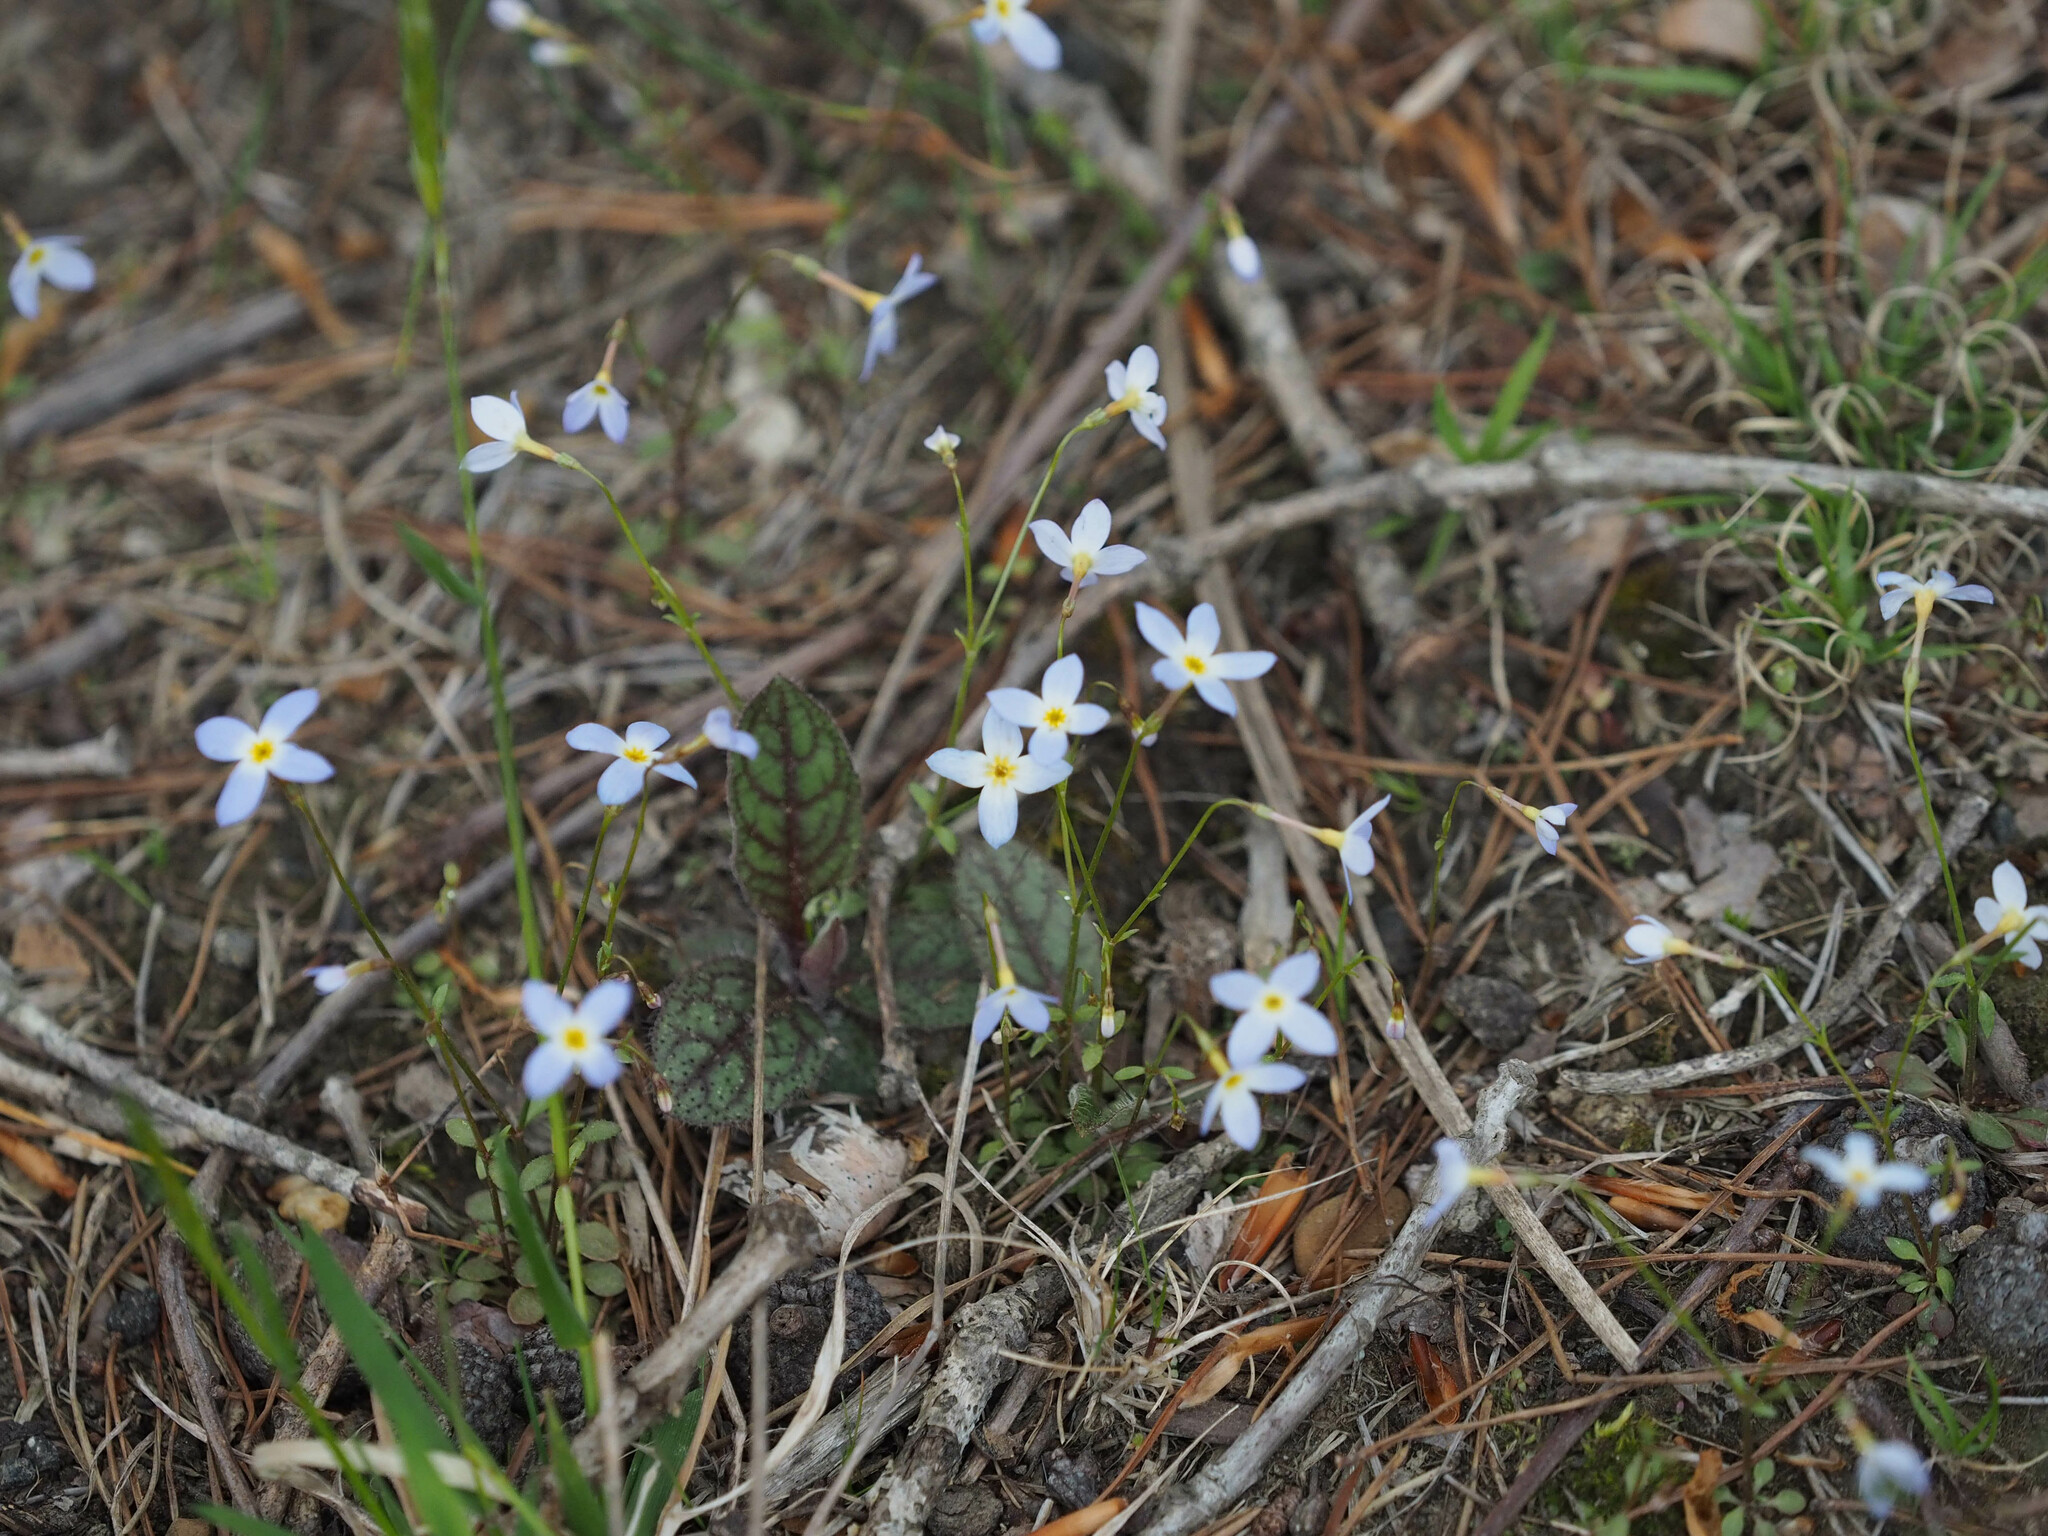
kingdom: Plantae
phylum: Tracheophyta
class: Magnoliopsida
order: Gentianales
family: Rubiaceae
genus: Houstonia
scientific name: Houstonia caerulea
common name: Bluets
